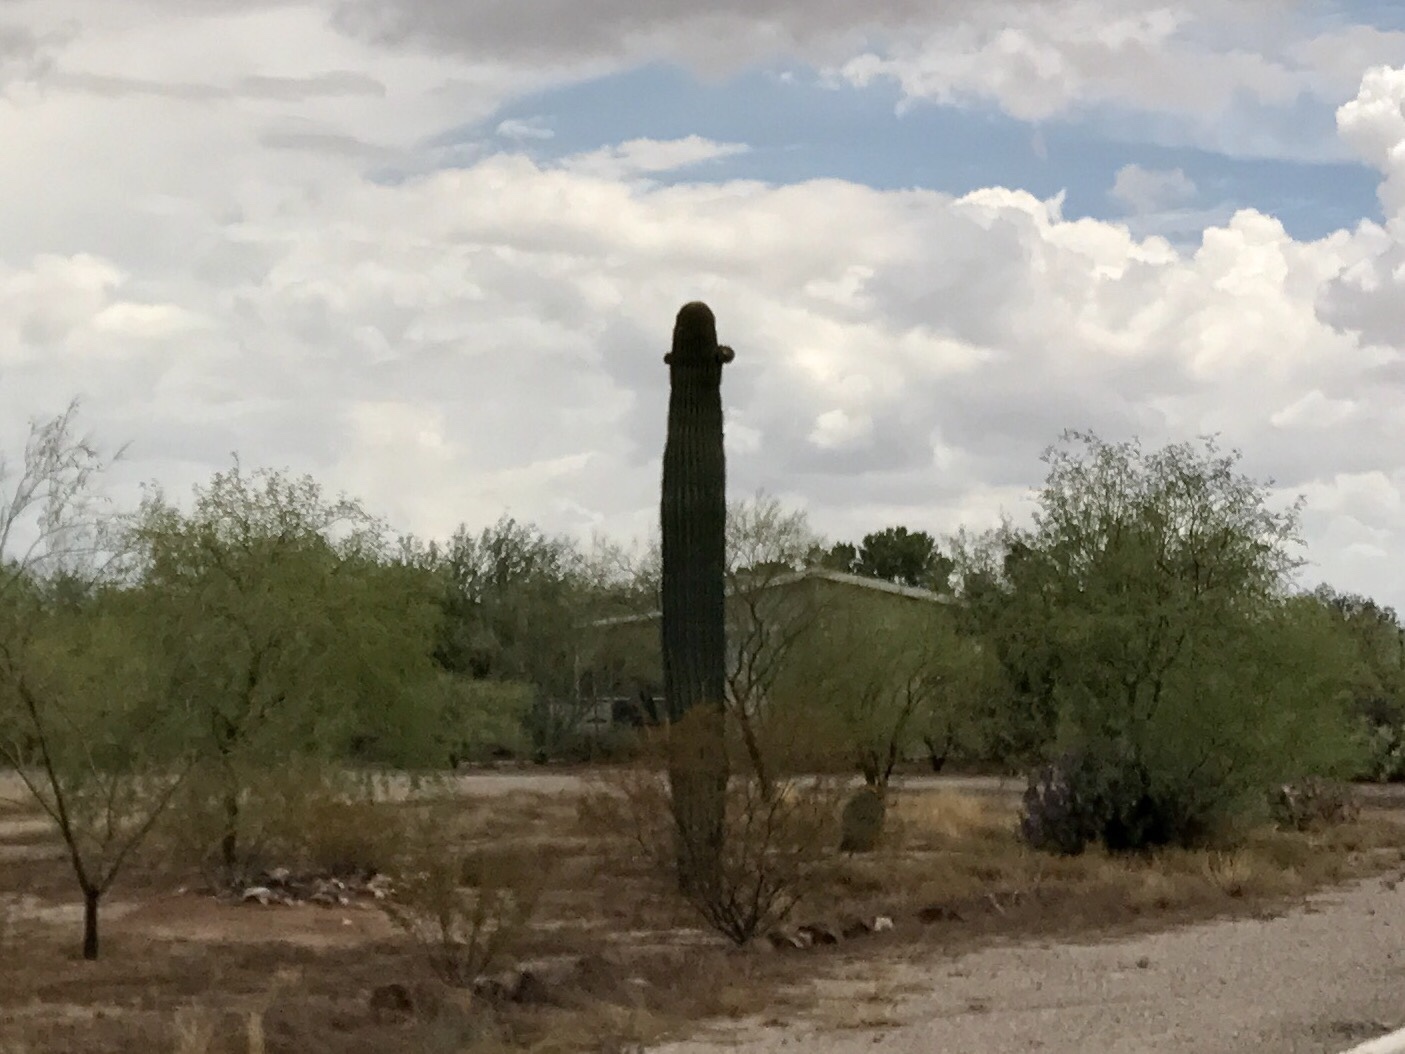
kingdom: Plantae
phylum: Tracheophyta
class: Magnoliopsida
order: Caryophyllales
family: Cactaceae
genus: Carnegiea
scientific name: Carnegiea gigantea
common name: Saguaro
